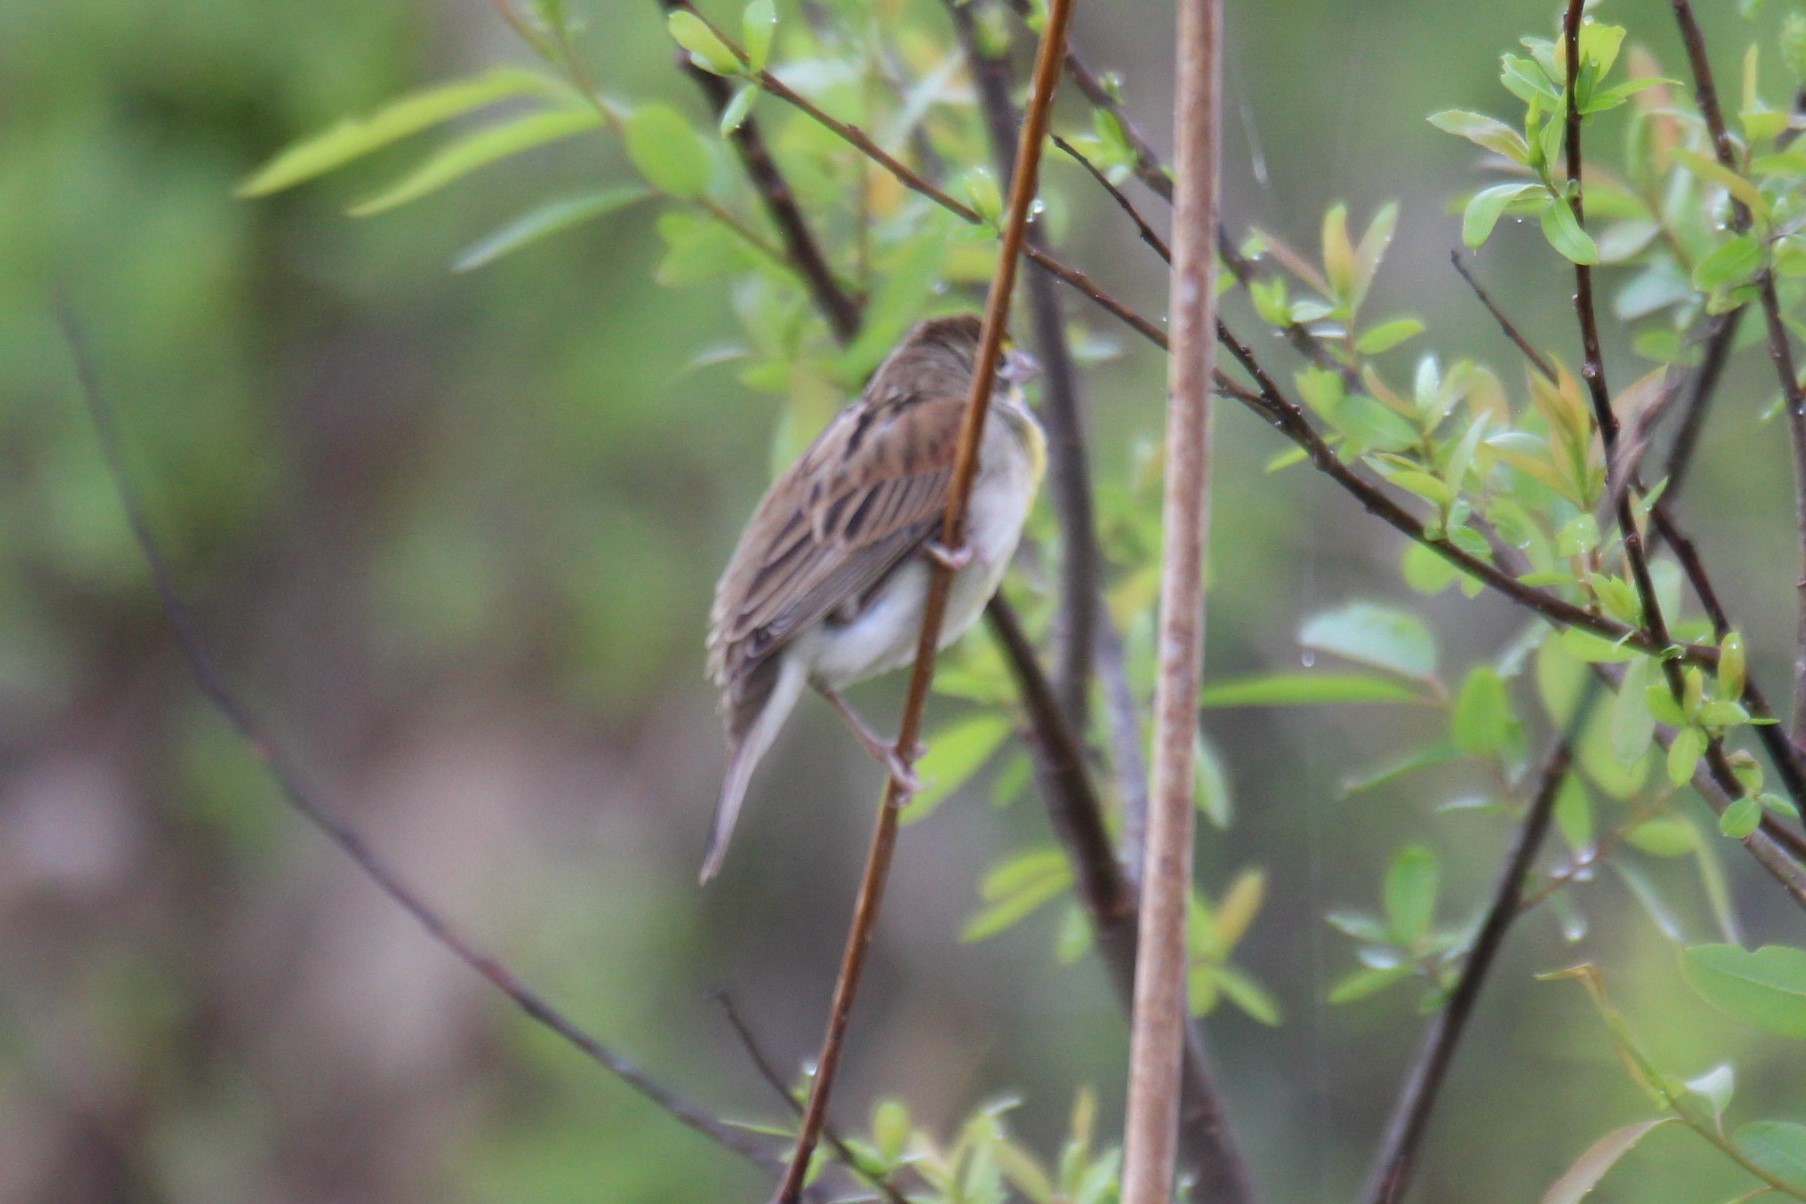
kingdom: Animalia
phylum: Chordata
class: Aves
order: Passeriformes
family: Cardinalidae
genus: Spiza
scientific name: Spiza americana
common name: Dickcissel
